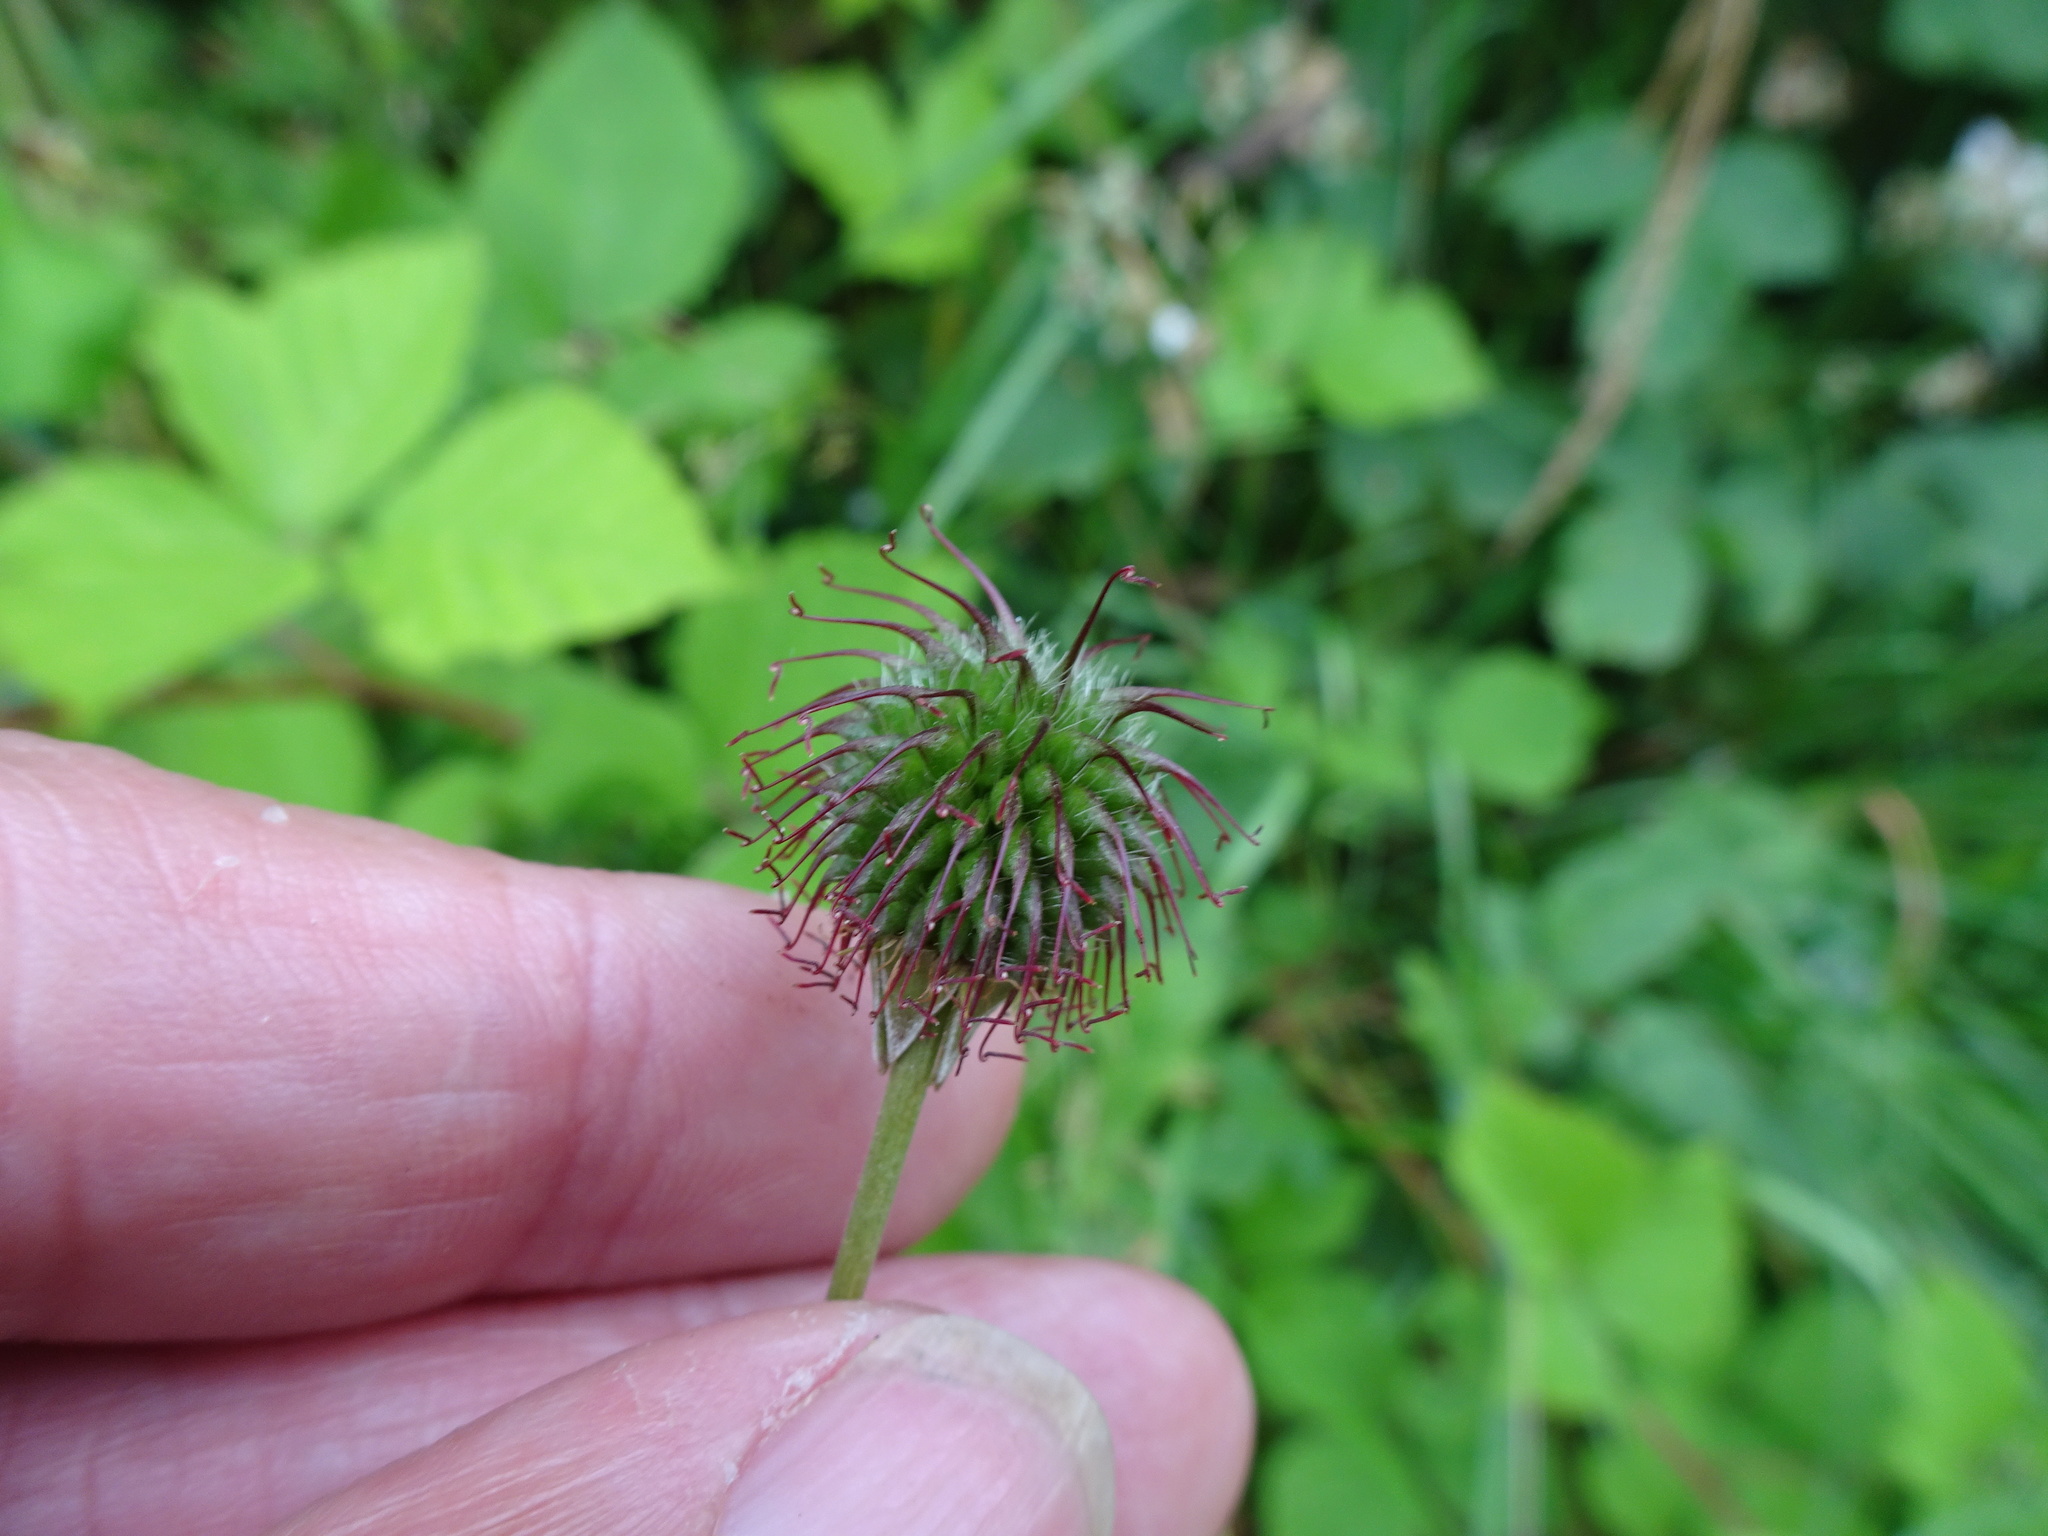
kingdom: Plantae
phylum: Tracheophyta
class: Magnoliopsida
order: Rosales
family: Rosaceae
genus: Geum
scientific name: Geum urbanum
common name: Wood avens
